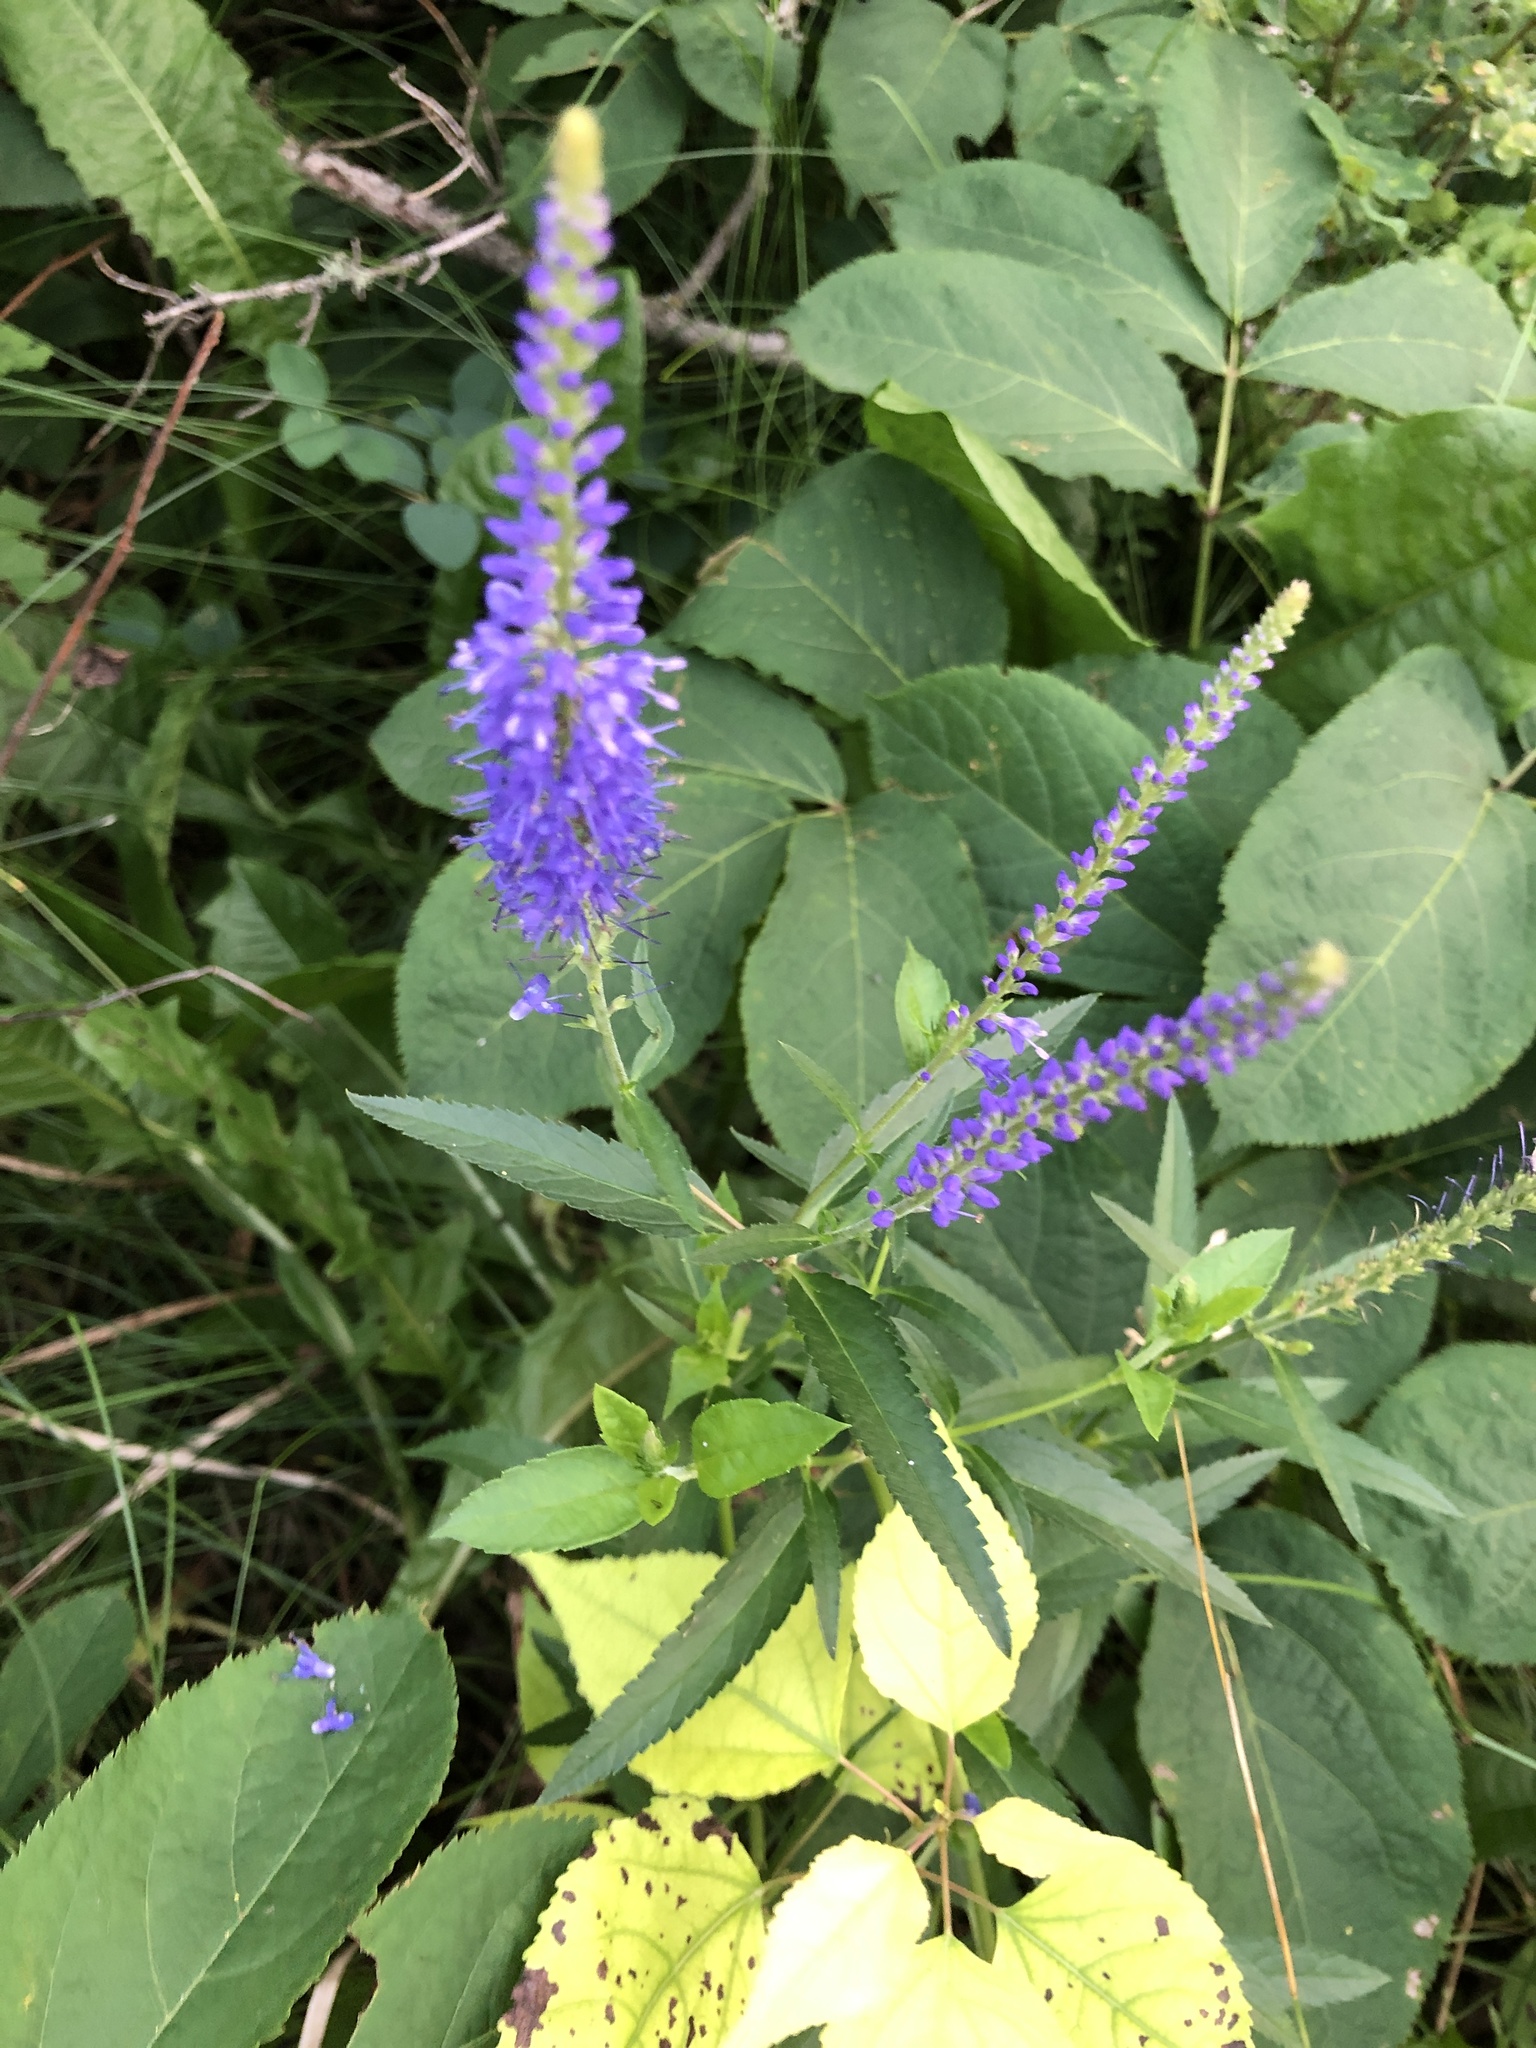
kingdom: Plantae
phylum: Tracheophyta
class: Magnoliopsida
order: Lamiales
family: Plantaginaceae
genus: Veronica
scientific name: Veronica longifolia
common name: Garden speedwell
